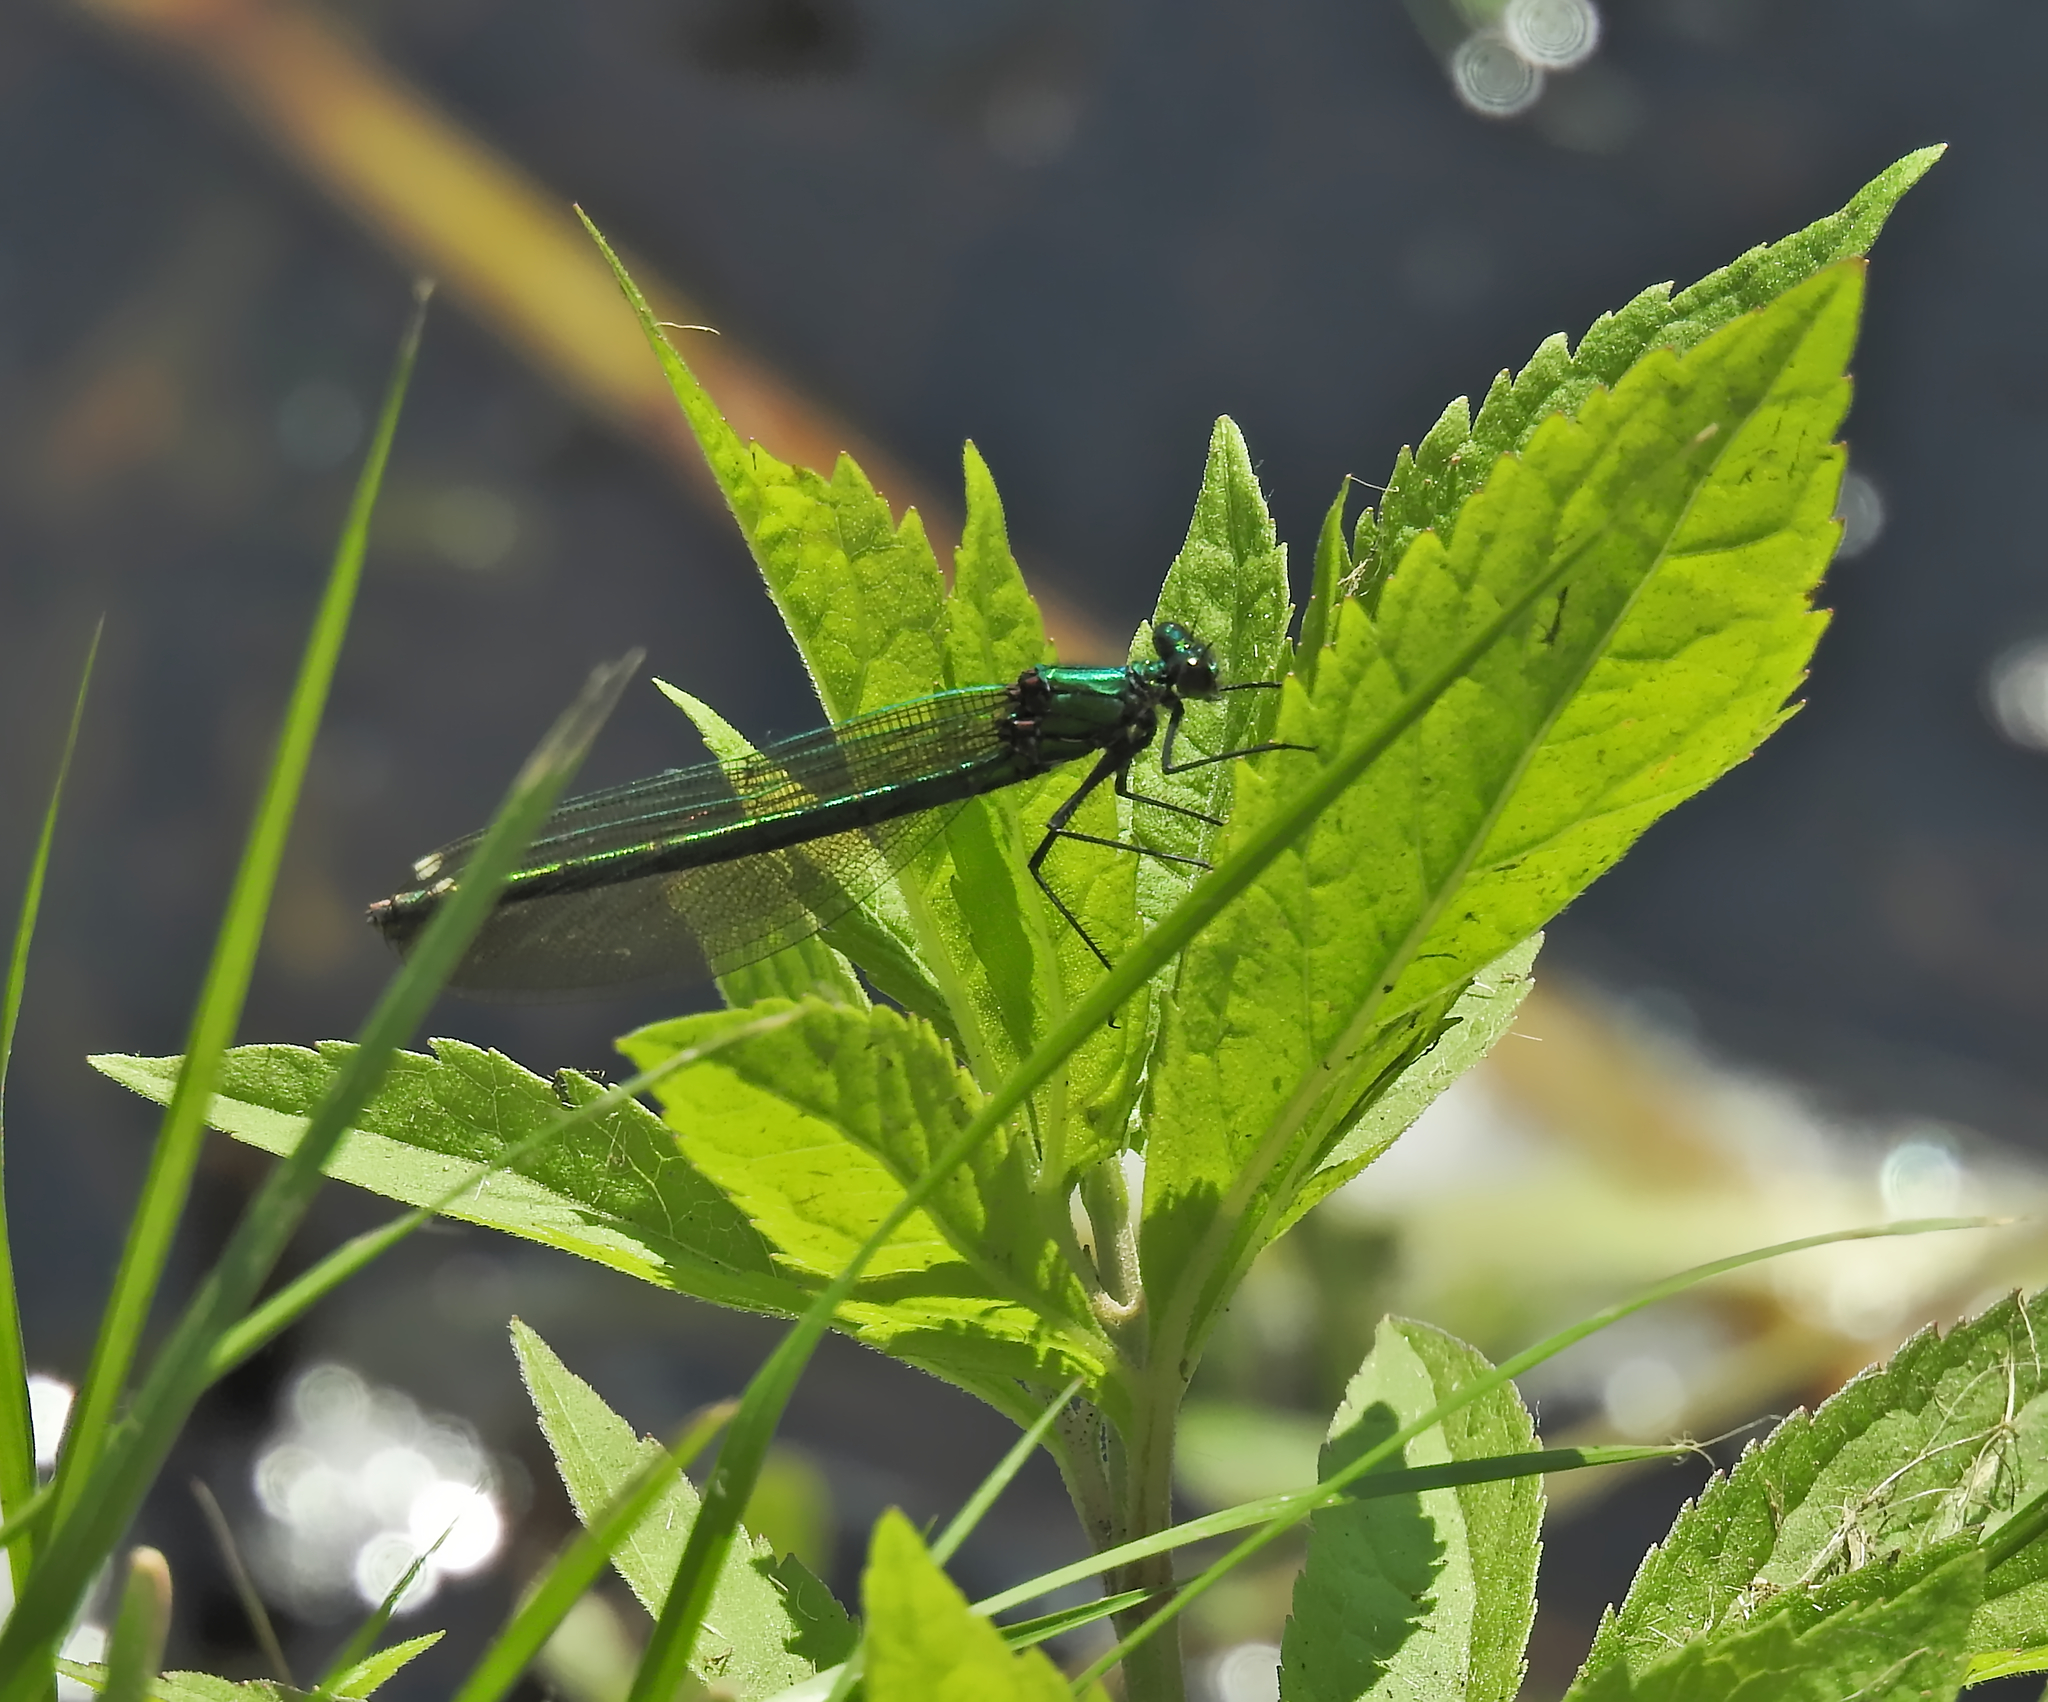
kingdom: Animalia
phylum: Arthropoda
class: Insecta
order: Odonata
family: Calopterygidae
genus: Calopteryx
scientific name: Calopteryx splendens
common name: Banded demoiselle
